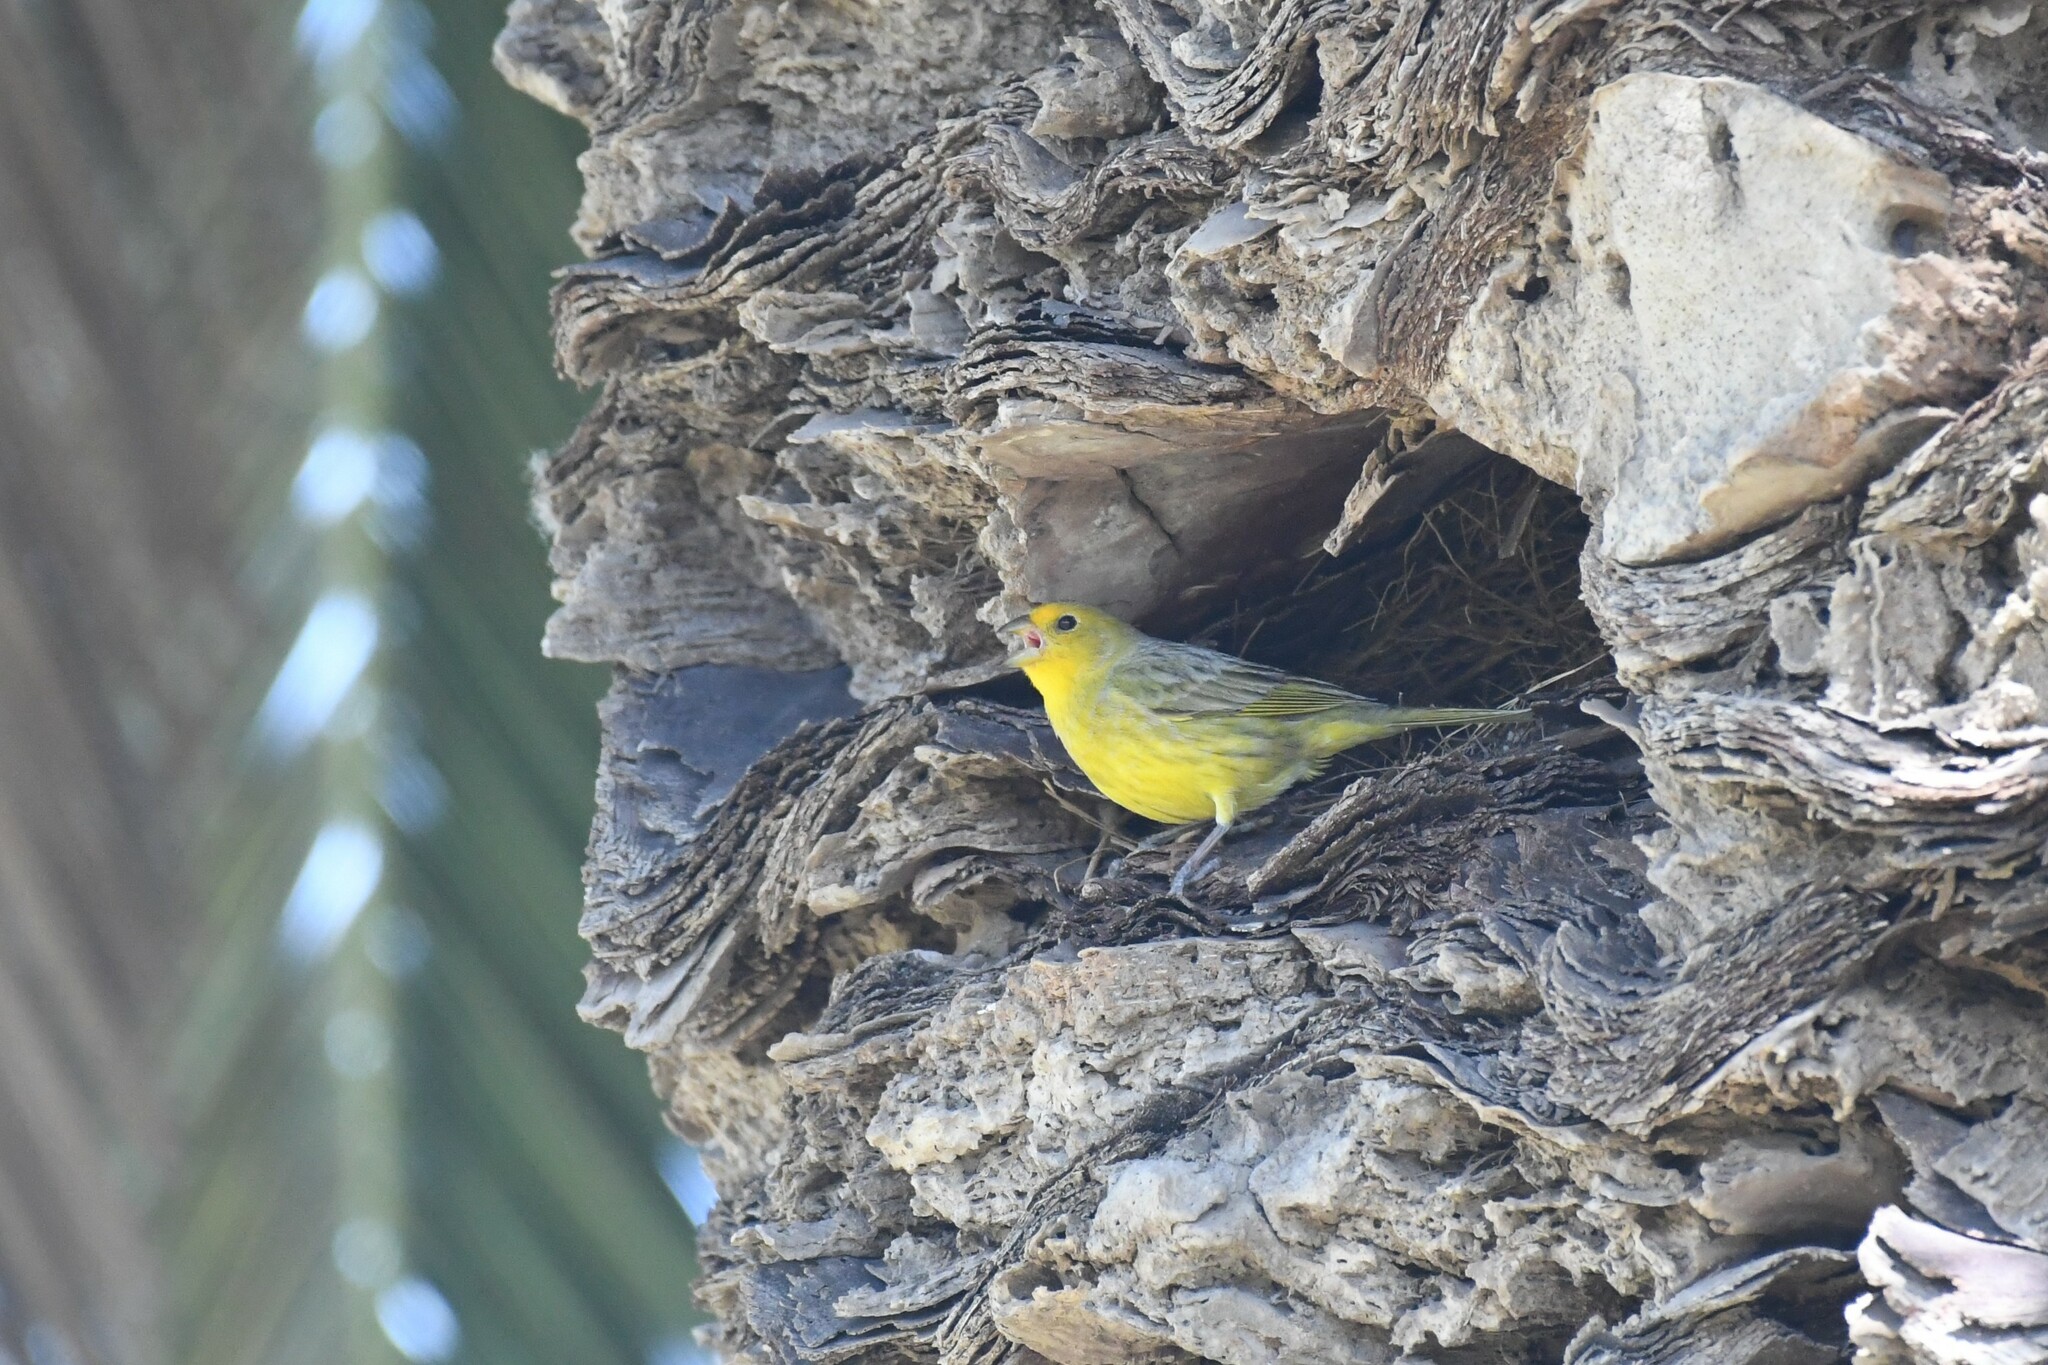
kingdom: Animalia
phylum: Chordata
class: Aves
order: Passeriformes
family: Thraupidae
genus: Sicalis
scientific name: Sicalis flaveola
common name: Saffron finch
